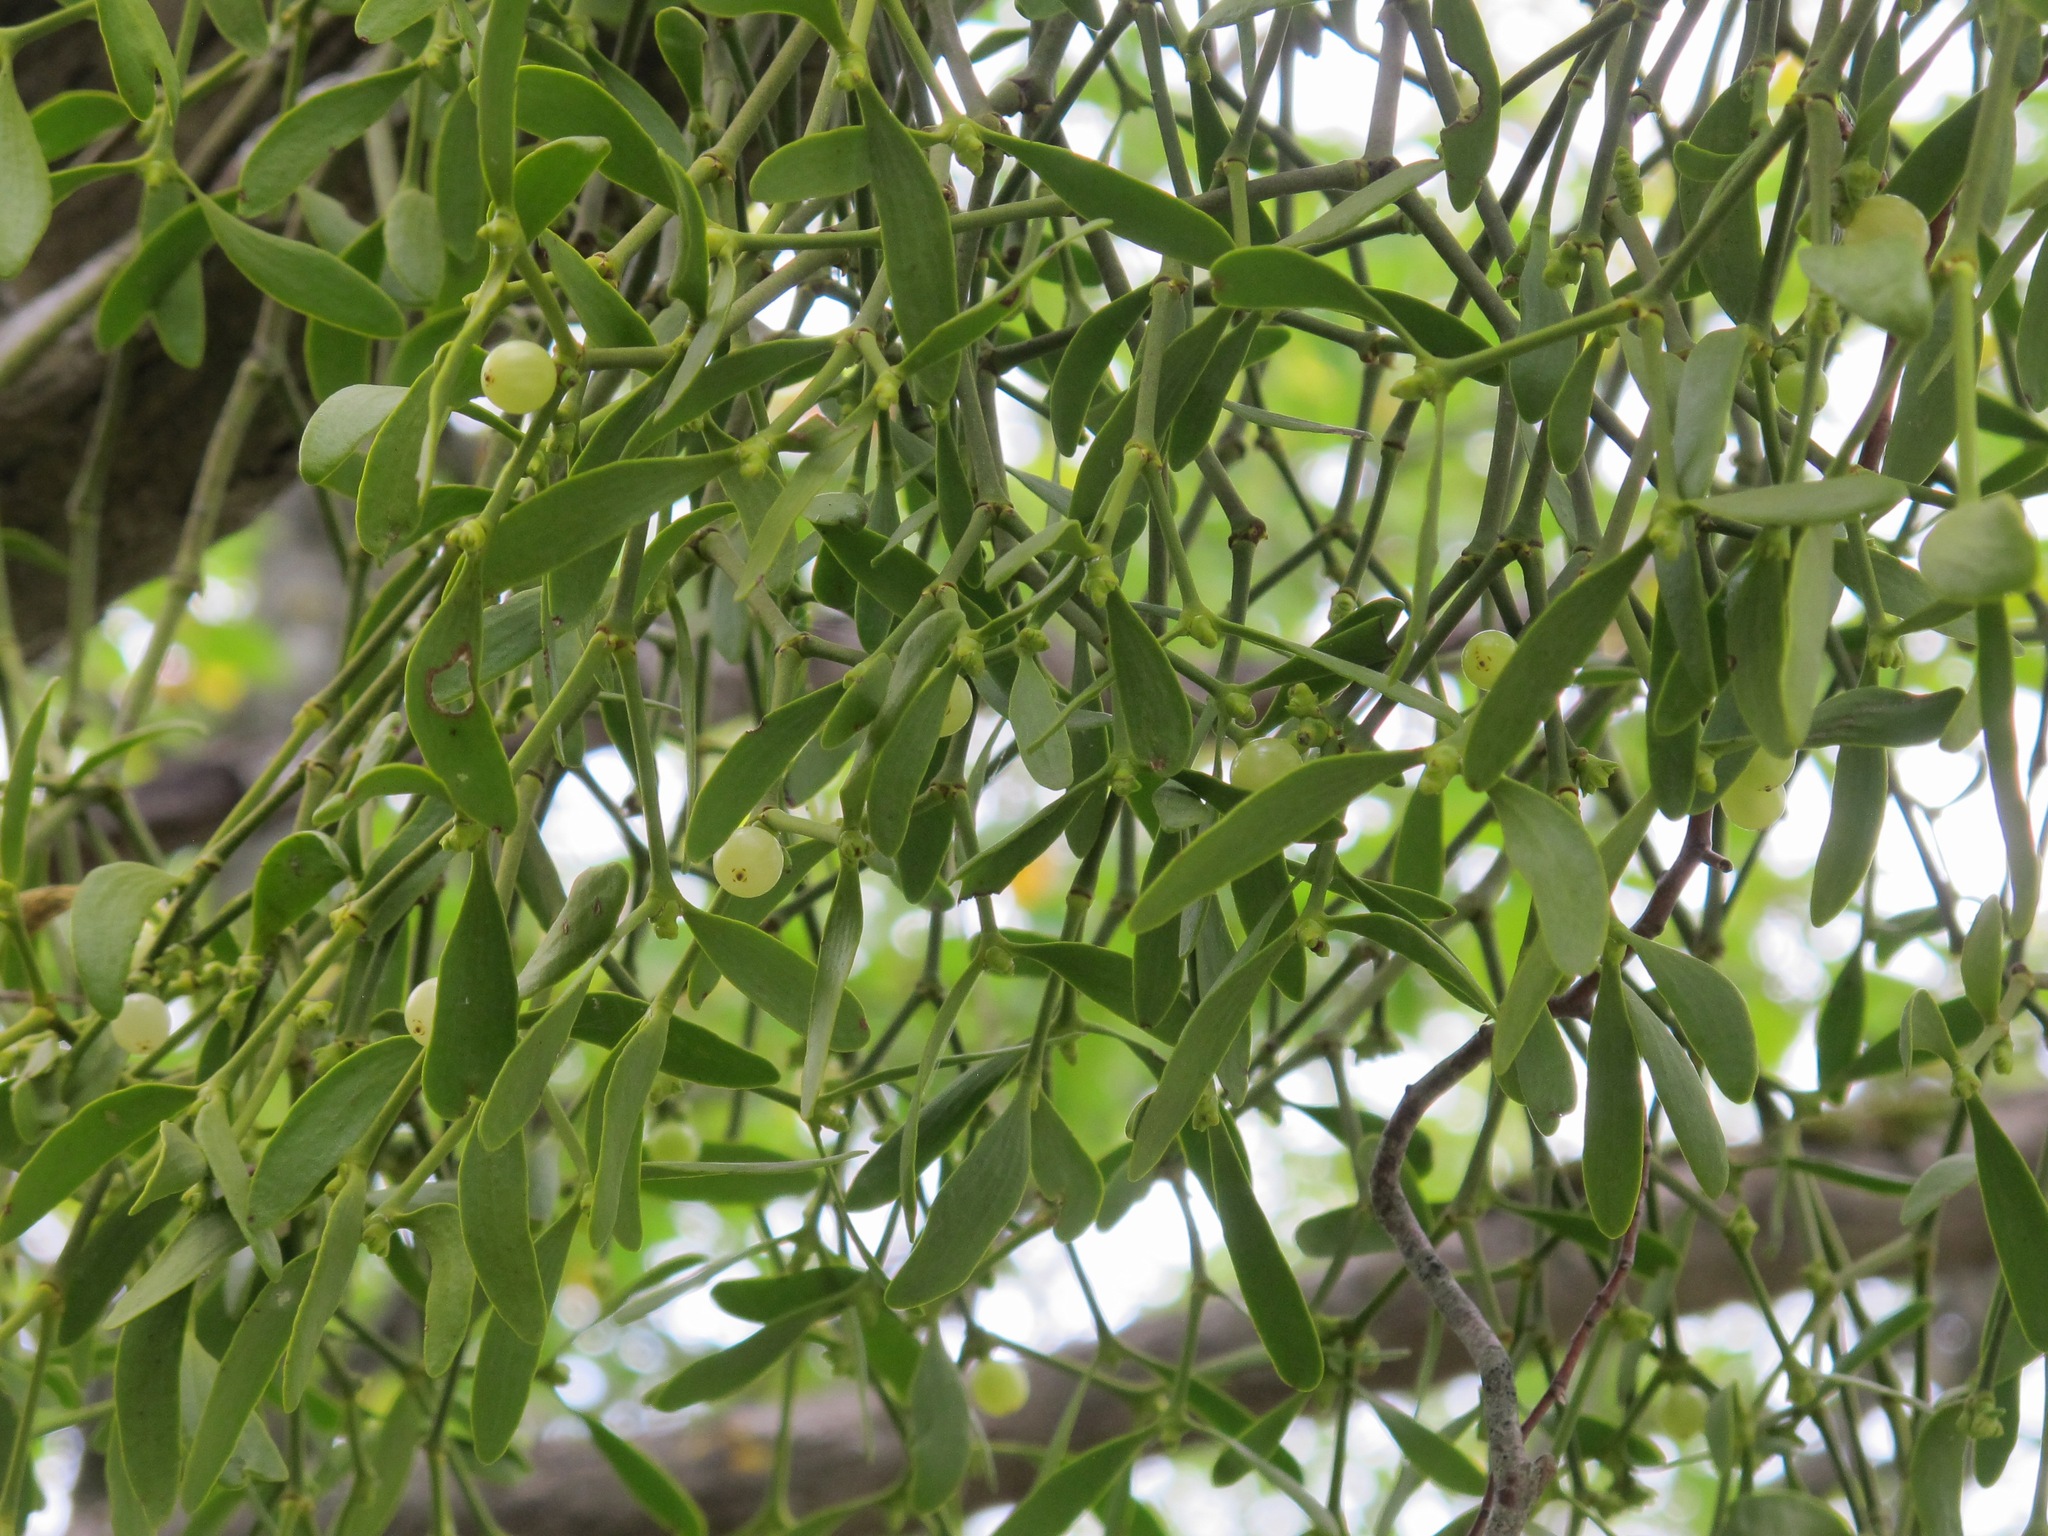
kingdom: Plantae
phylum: Tracheophyta
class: Magnoliopsida
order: Santalales
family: Viscaceae
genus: Viscum
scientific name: Viscum album
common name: Mistletoe
